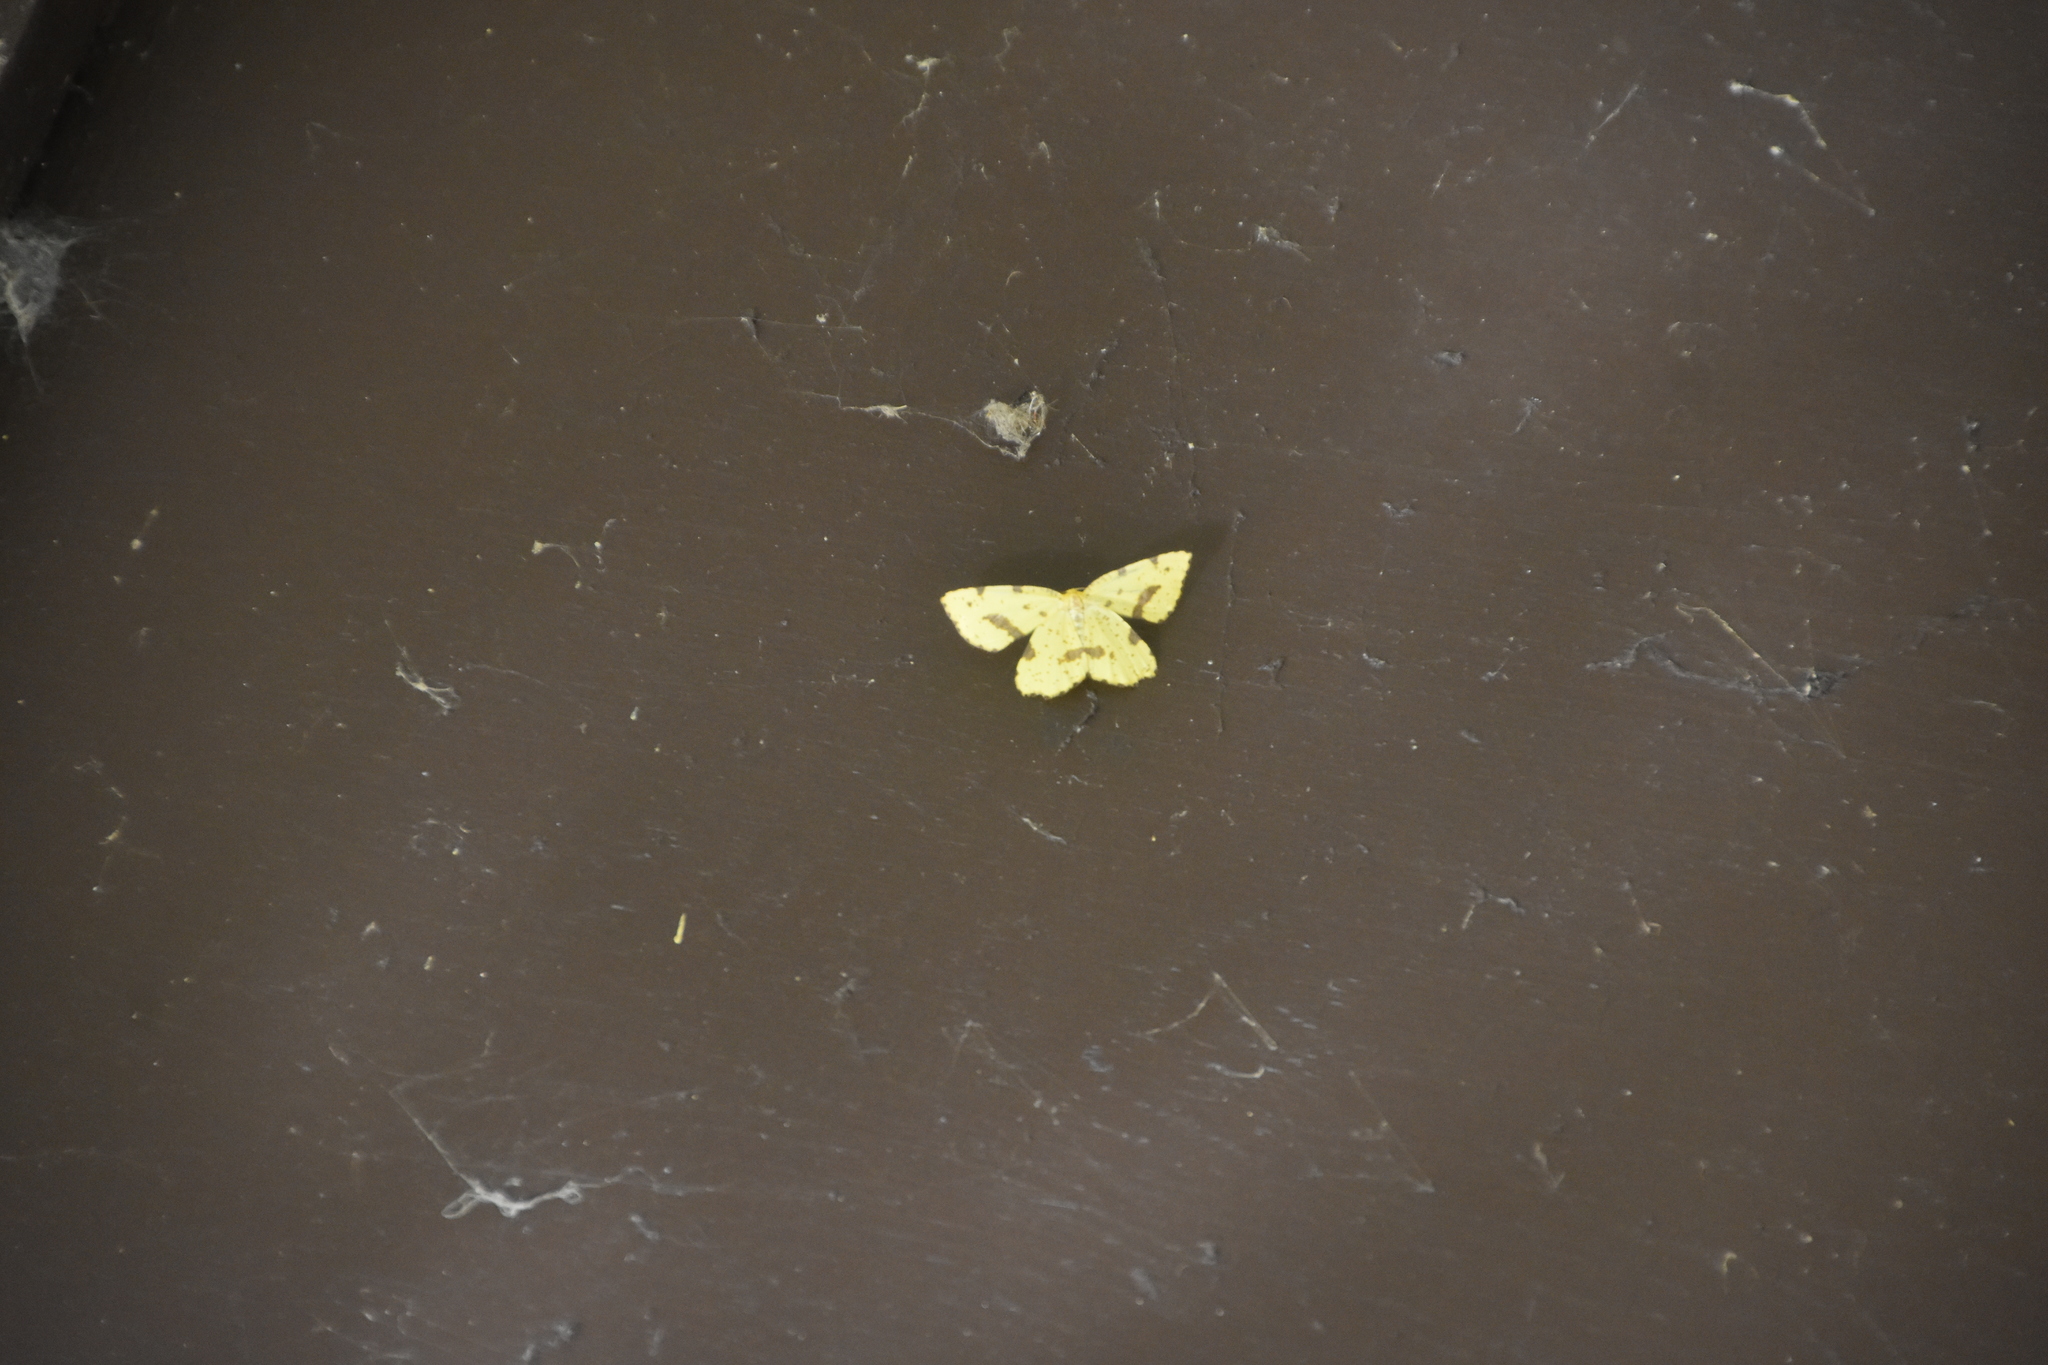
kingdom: Animalia
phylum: Arthropoda
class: Insecta
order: Lepidoptera
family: Geometridae
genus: Xanthotype
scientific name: Xanthotype
